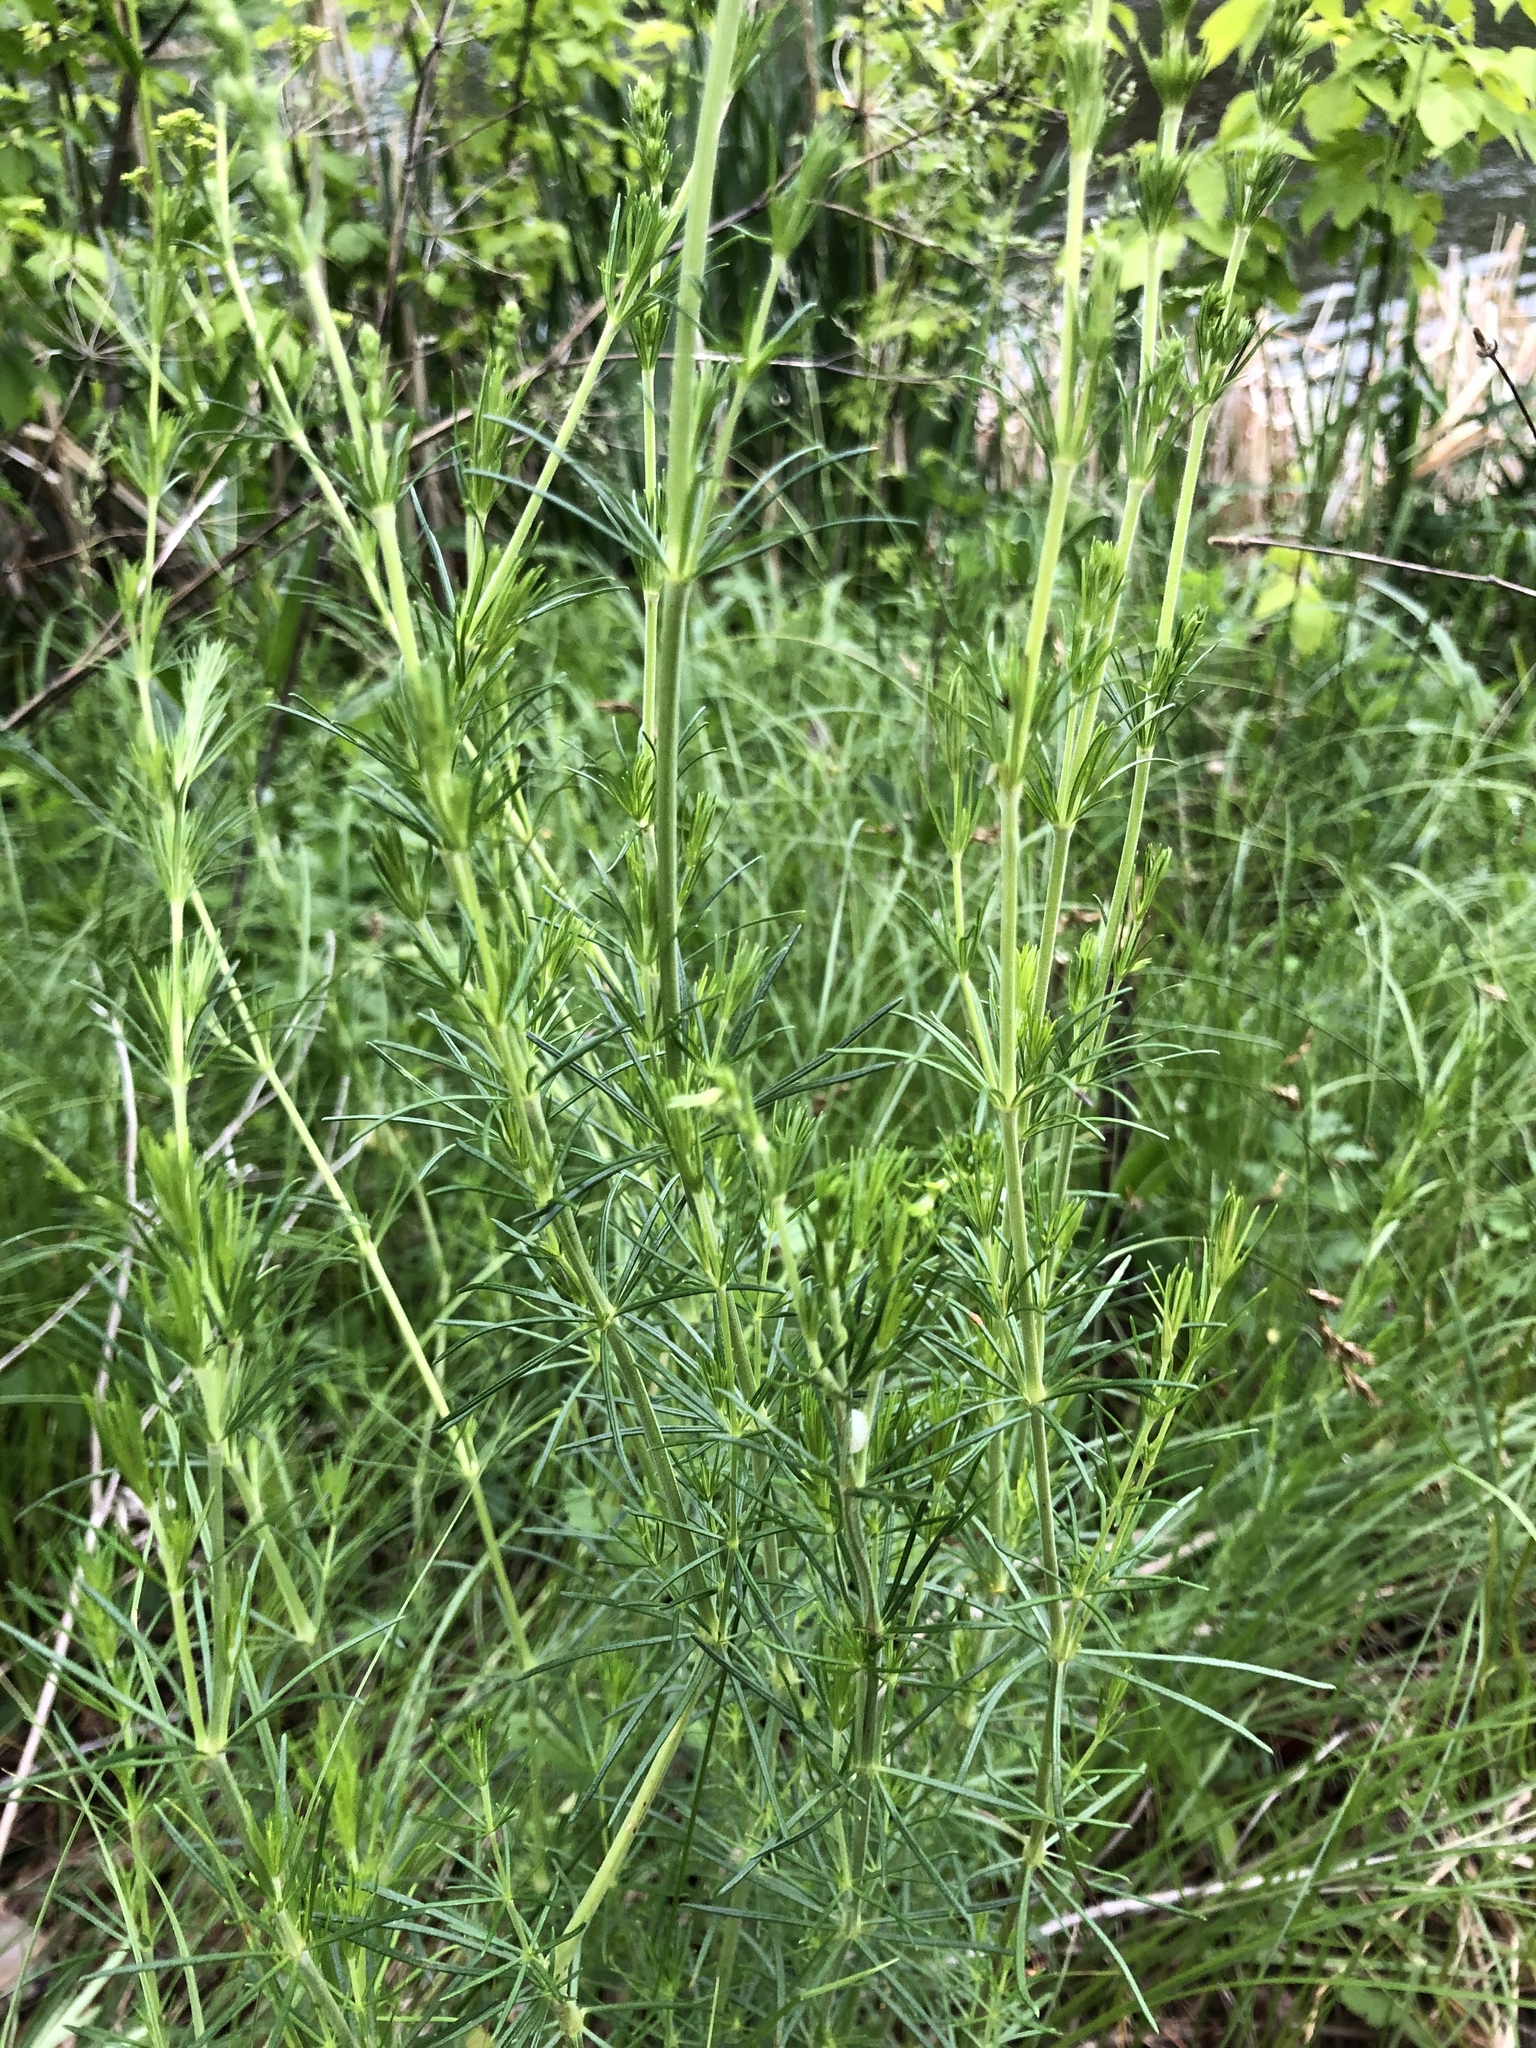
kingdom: Plantae
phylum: Tracheophyta
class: Magnoliopsida
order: Gentianales
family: Rubiaceae
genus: Galium
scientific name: Galium verum
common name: Lady's bedstraw
